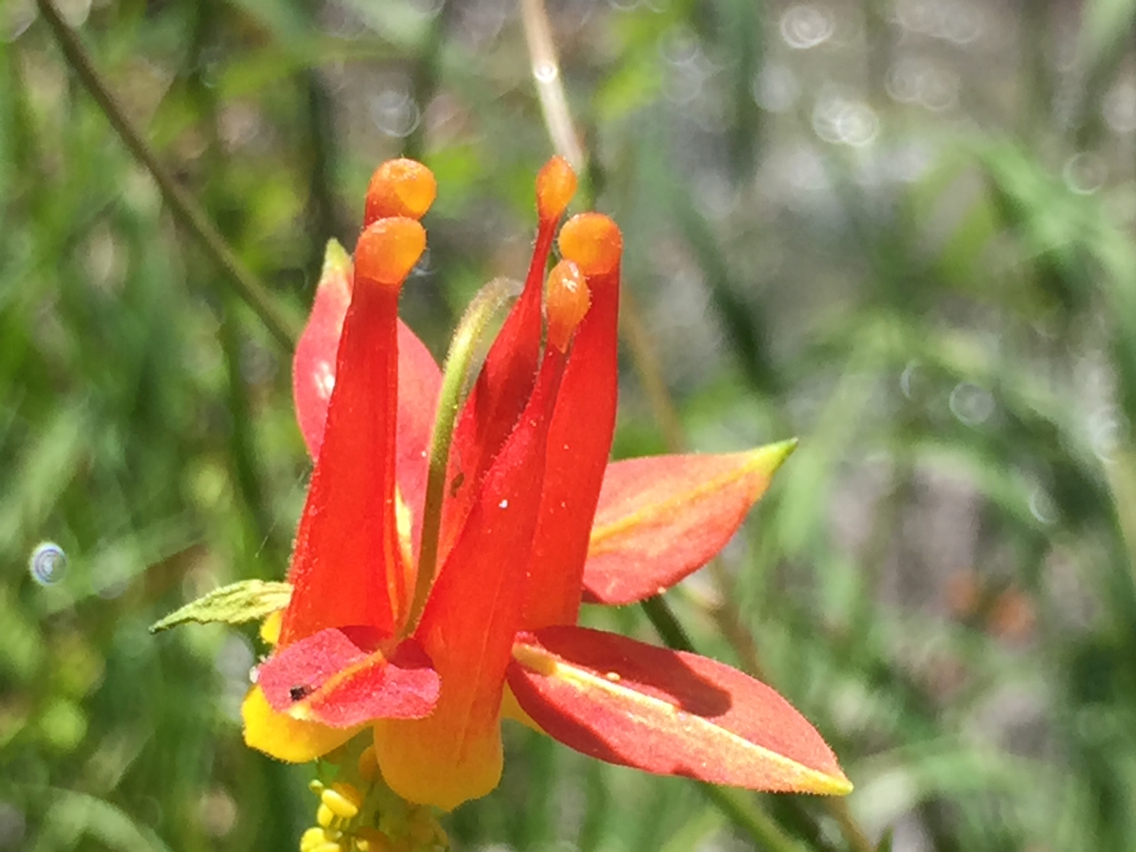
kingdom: Plantae
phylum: Tracheophyta
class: Magnoliopsida
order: Ranunculales
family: Ranunculaceae
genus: Aquilegia
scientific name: Aquilegia formosa
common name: Sitka columbine
